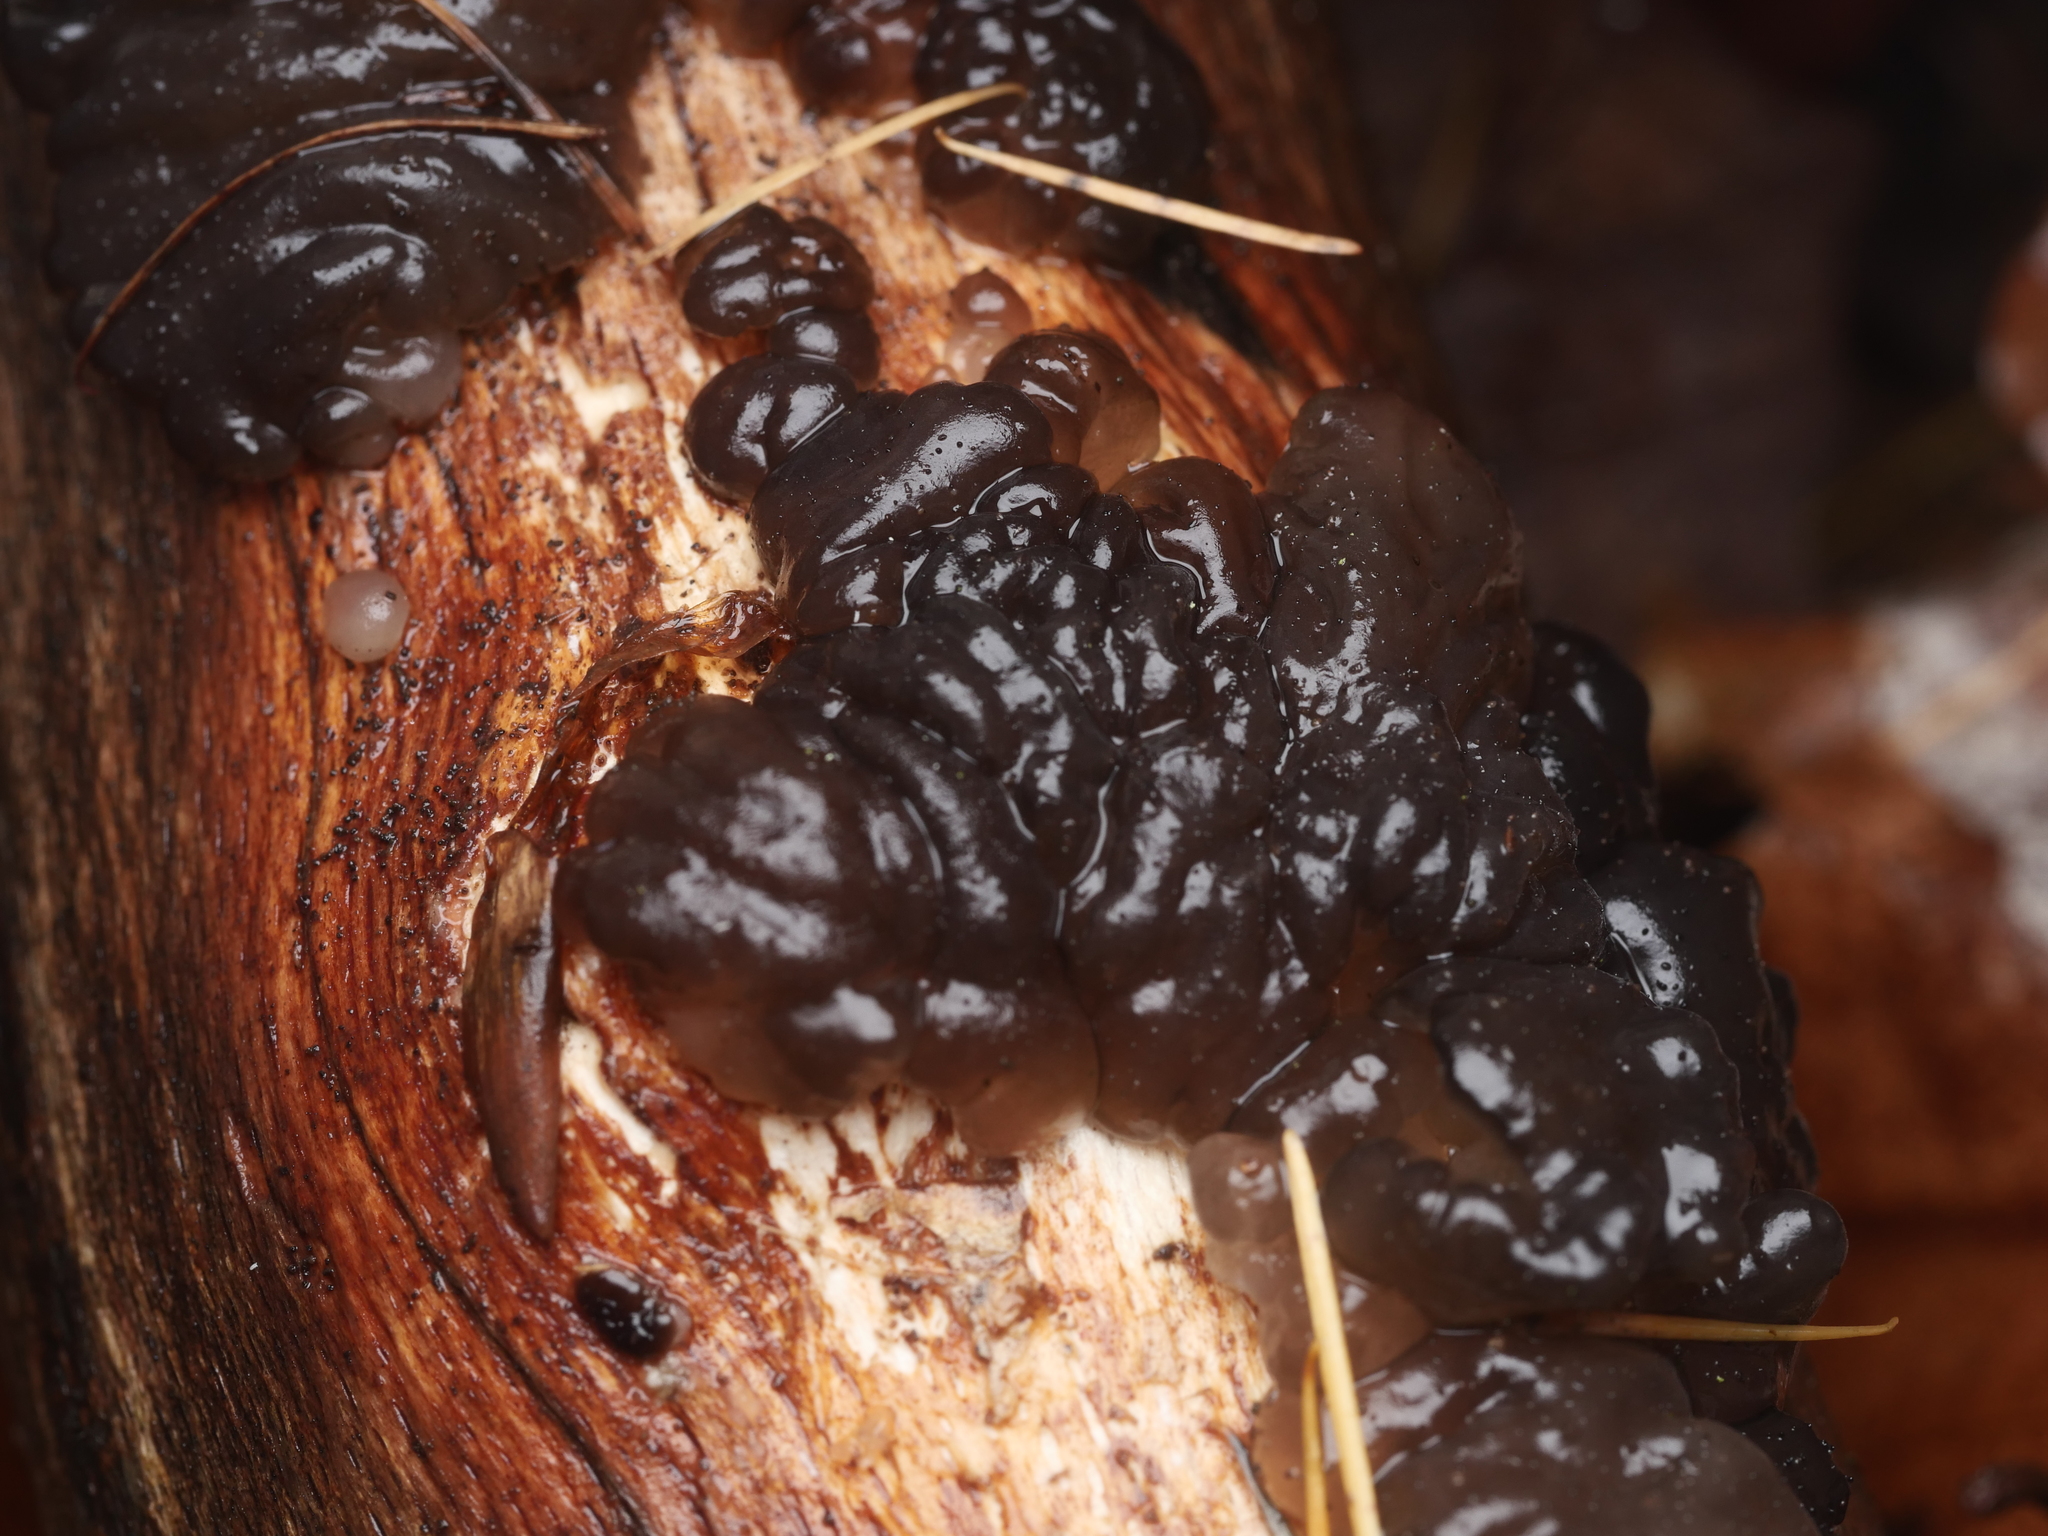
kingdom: Fungi
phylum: Basidiomycota
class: Agaricomycetes
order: Auriculariales
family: Auriculariaceae
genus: Exidia
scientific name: Exidia nigricans
